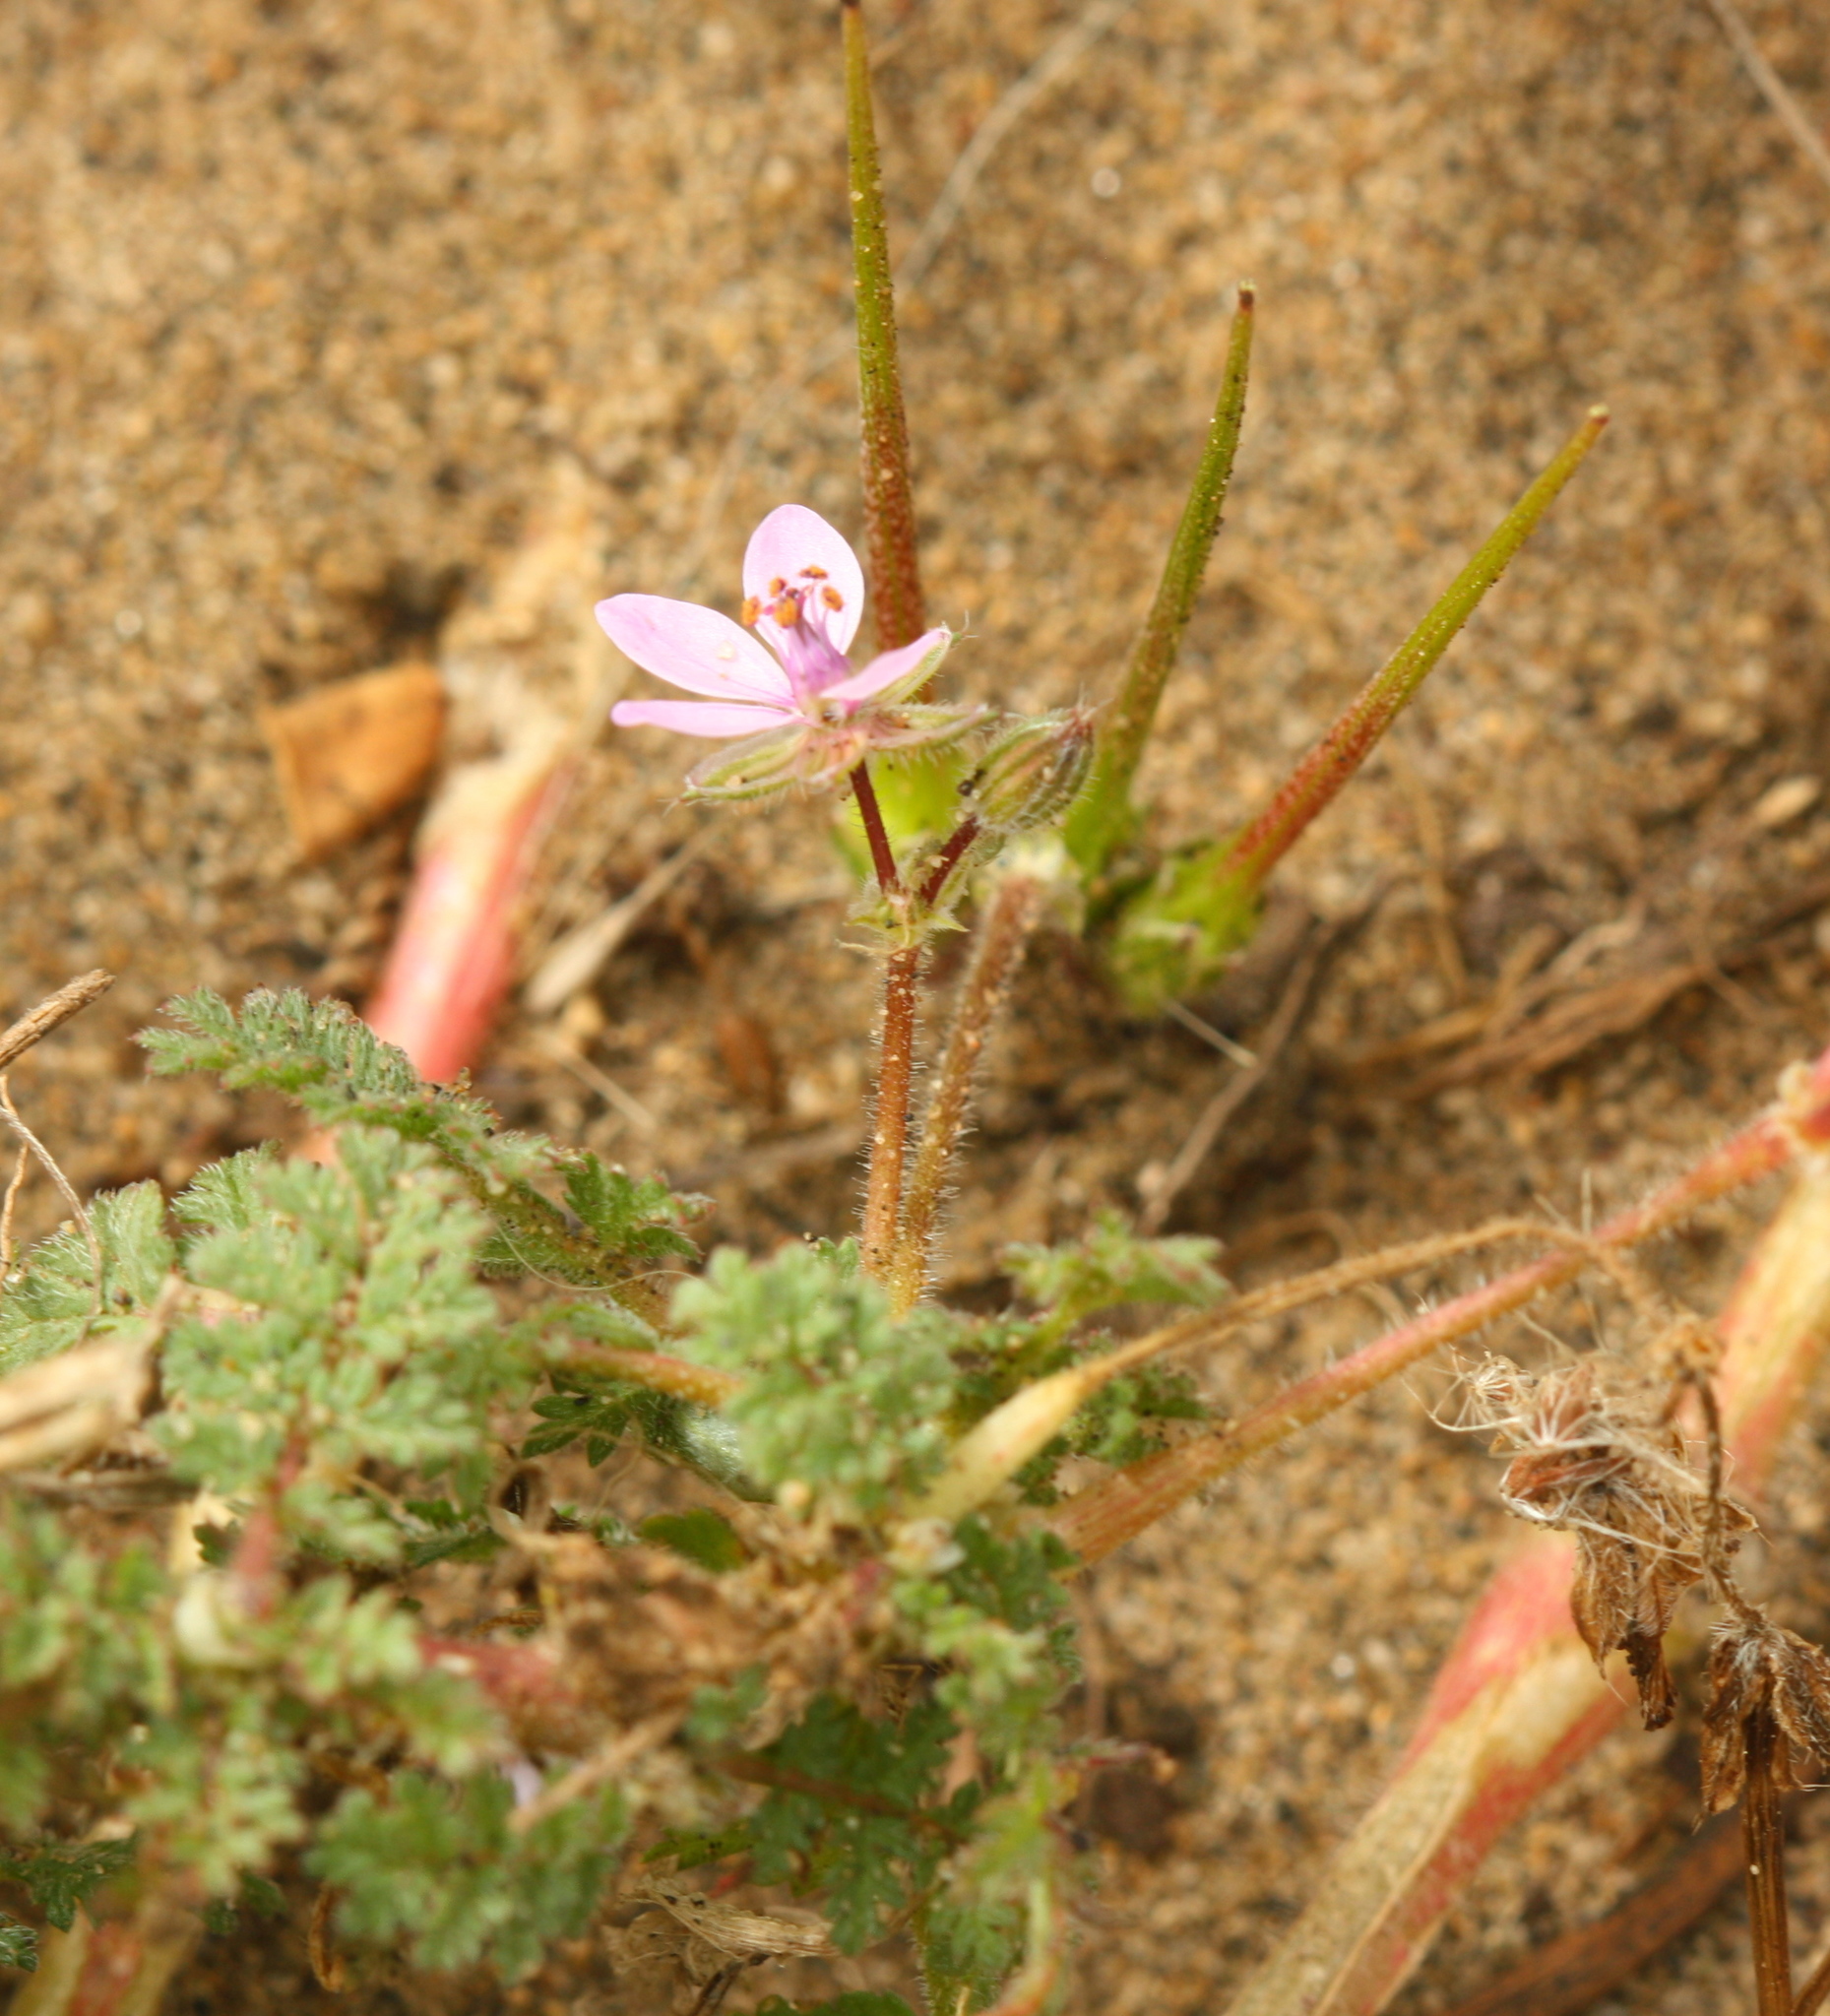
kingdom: Plantae
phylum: Tracheophyta
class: Magnoliopsida
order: Geraniales
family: Geraniaceae
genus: Erodium
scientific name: Erodium cicutarium
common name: Common stork's-bill
